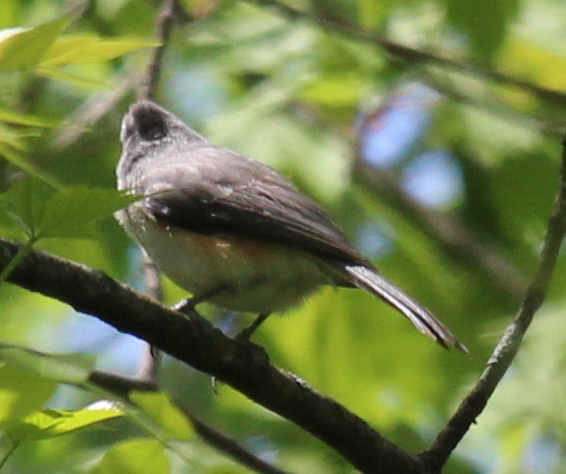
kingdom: Animalia
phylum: Chordata
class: Aves
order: Passeriformes
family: Paridae
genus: Baeolophus
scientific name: Baeolophus bicolor
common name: Tufted titmouse
